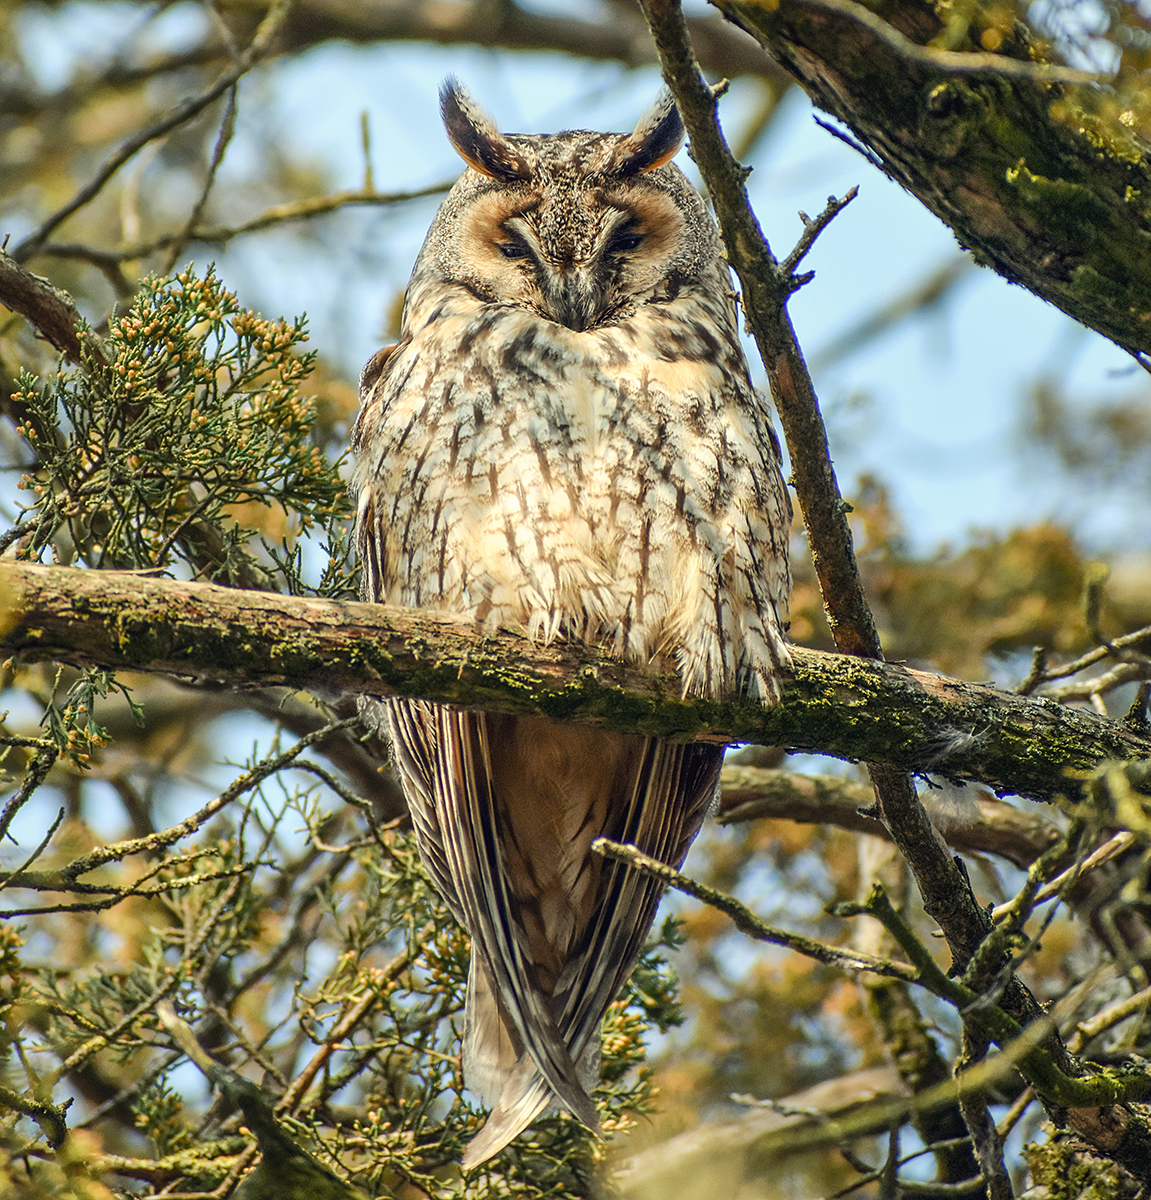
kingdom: Animalia
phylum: Chordata
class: Aves
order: Strigiformes
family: Strigidae
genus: Asio
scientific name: Asio otus
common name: Long-eared owl
